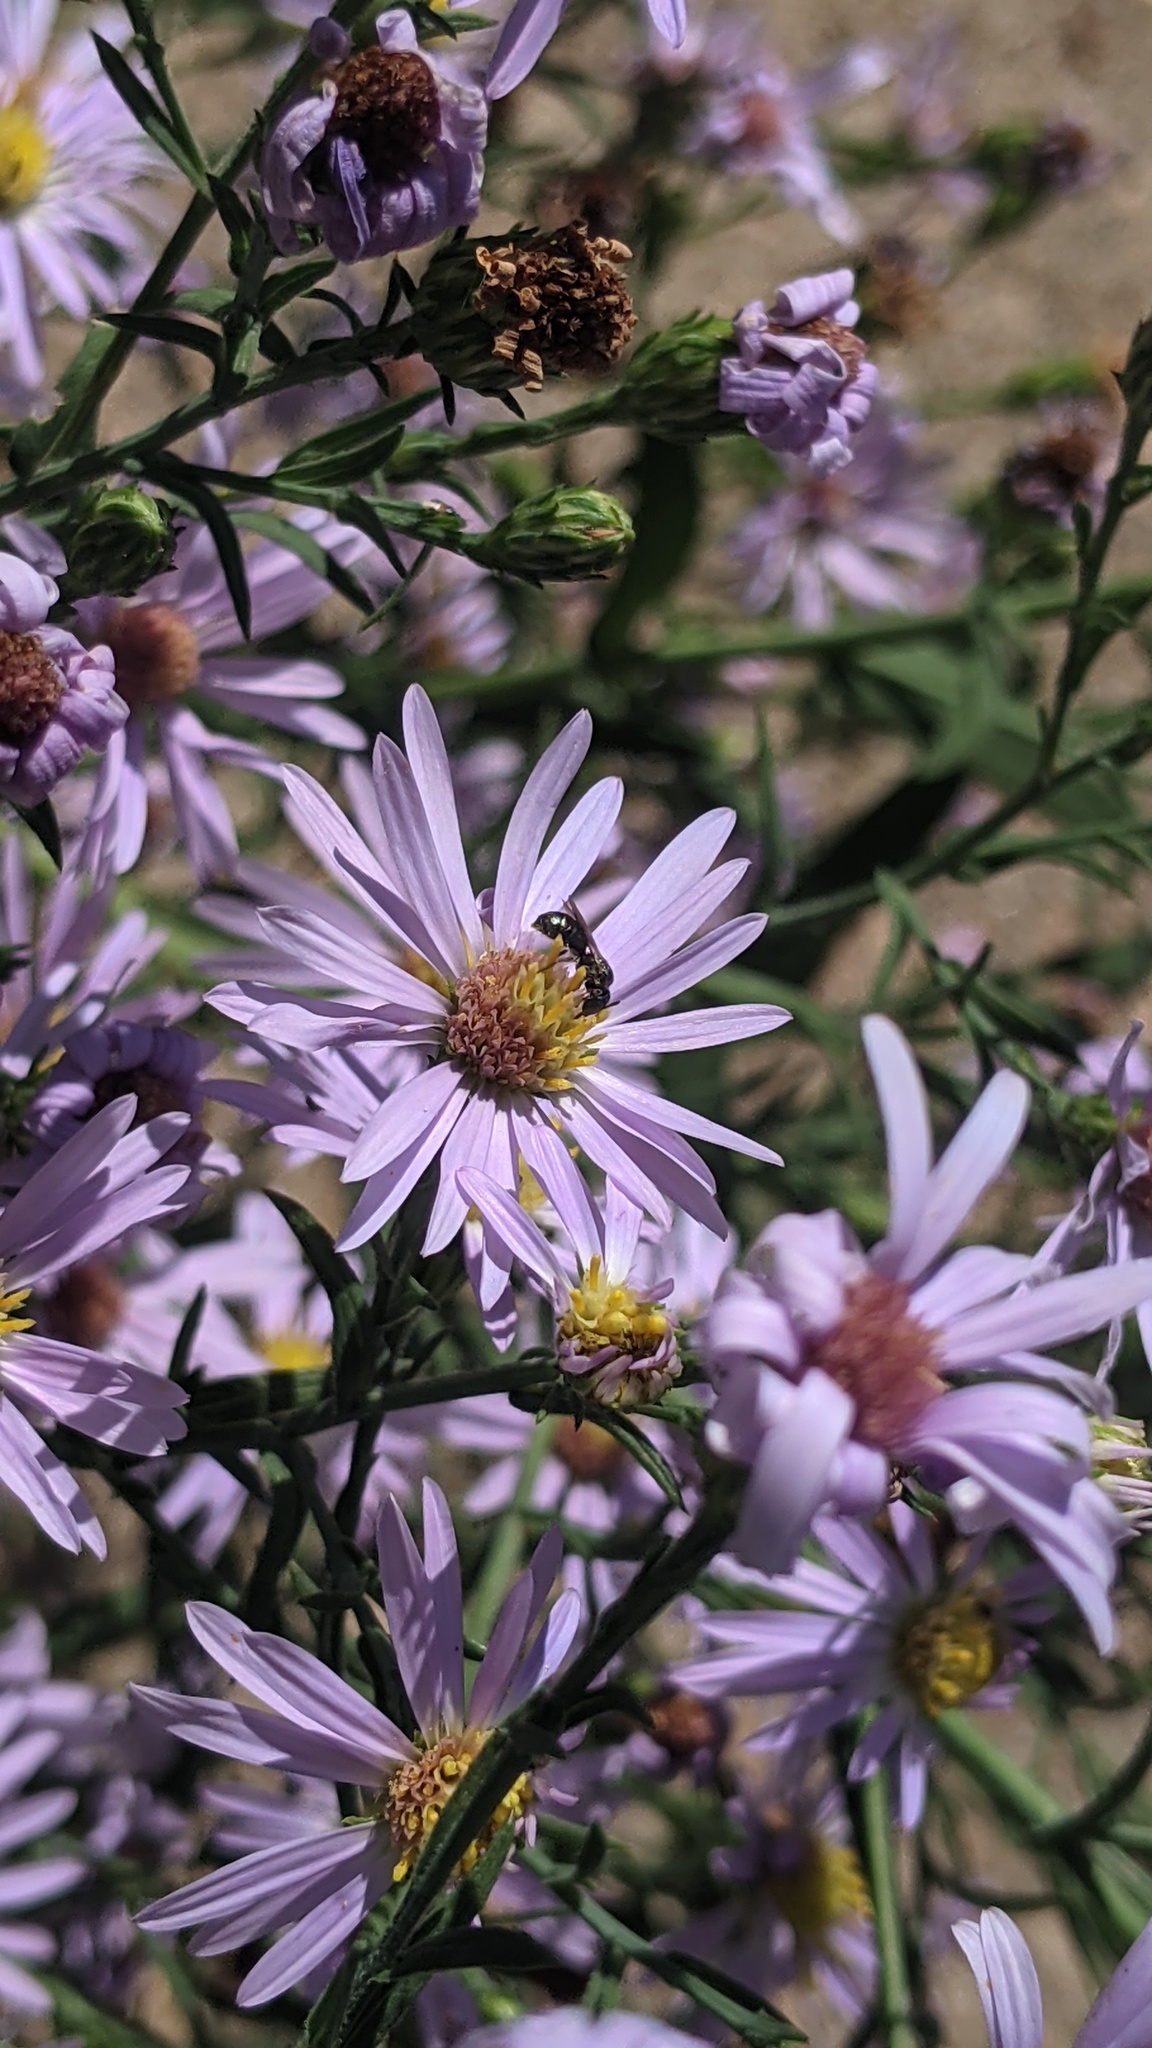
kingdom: Animalia
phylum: Arthropoda
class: Insecta
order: Hymenoptera
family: Apidae
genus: Zadontomerus
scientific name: Zadontomerus
